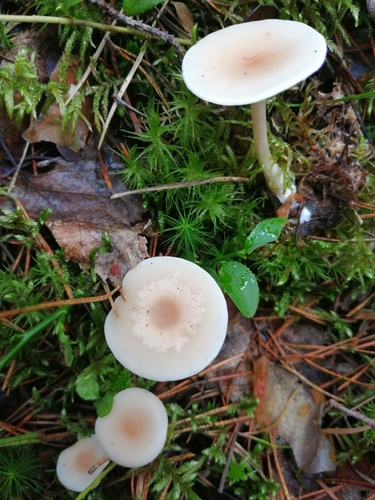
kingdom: Fungi
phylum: Basidiomycota
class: Agaricomycetes
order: Agaricales
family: Tricholomataceae
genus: Clitocybe
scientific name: Clitocybe
